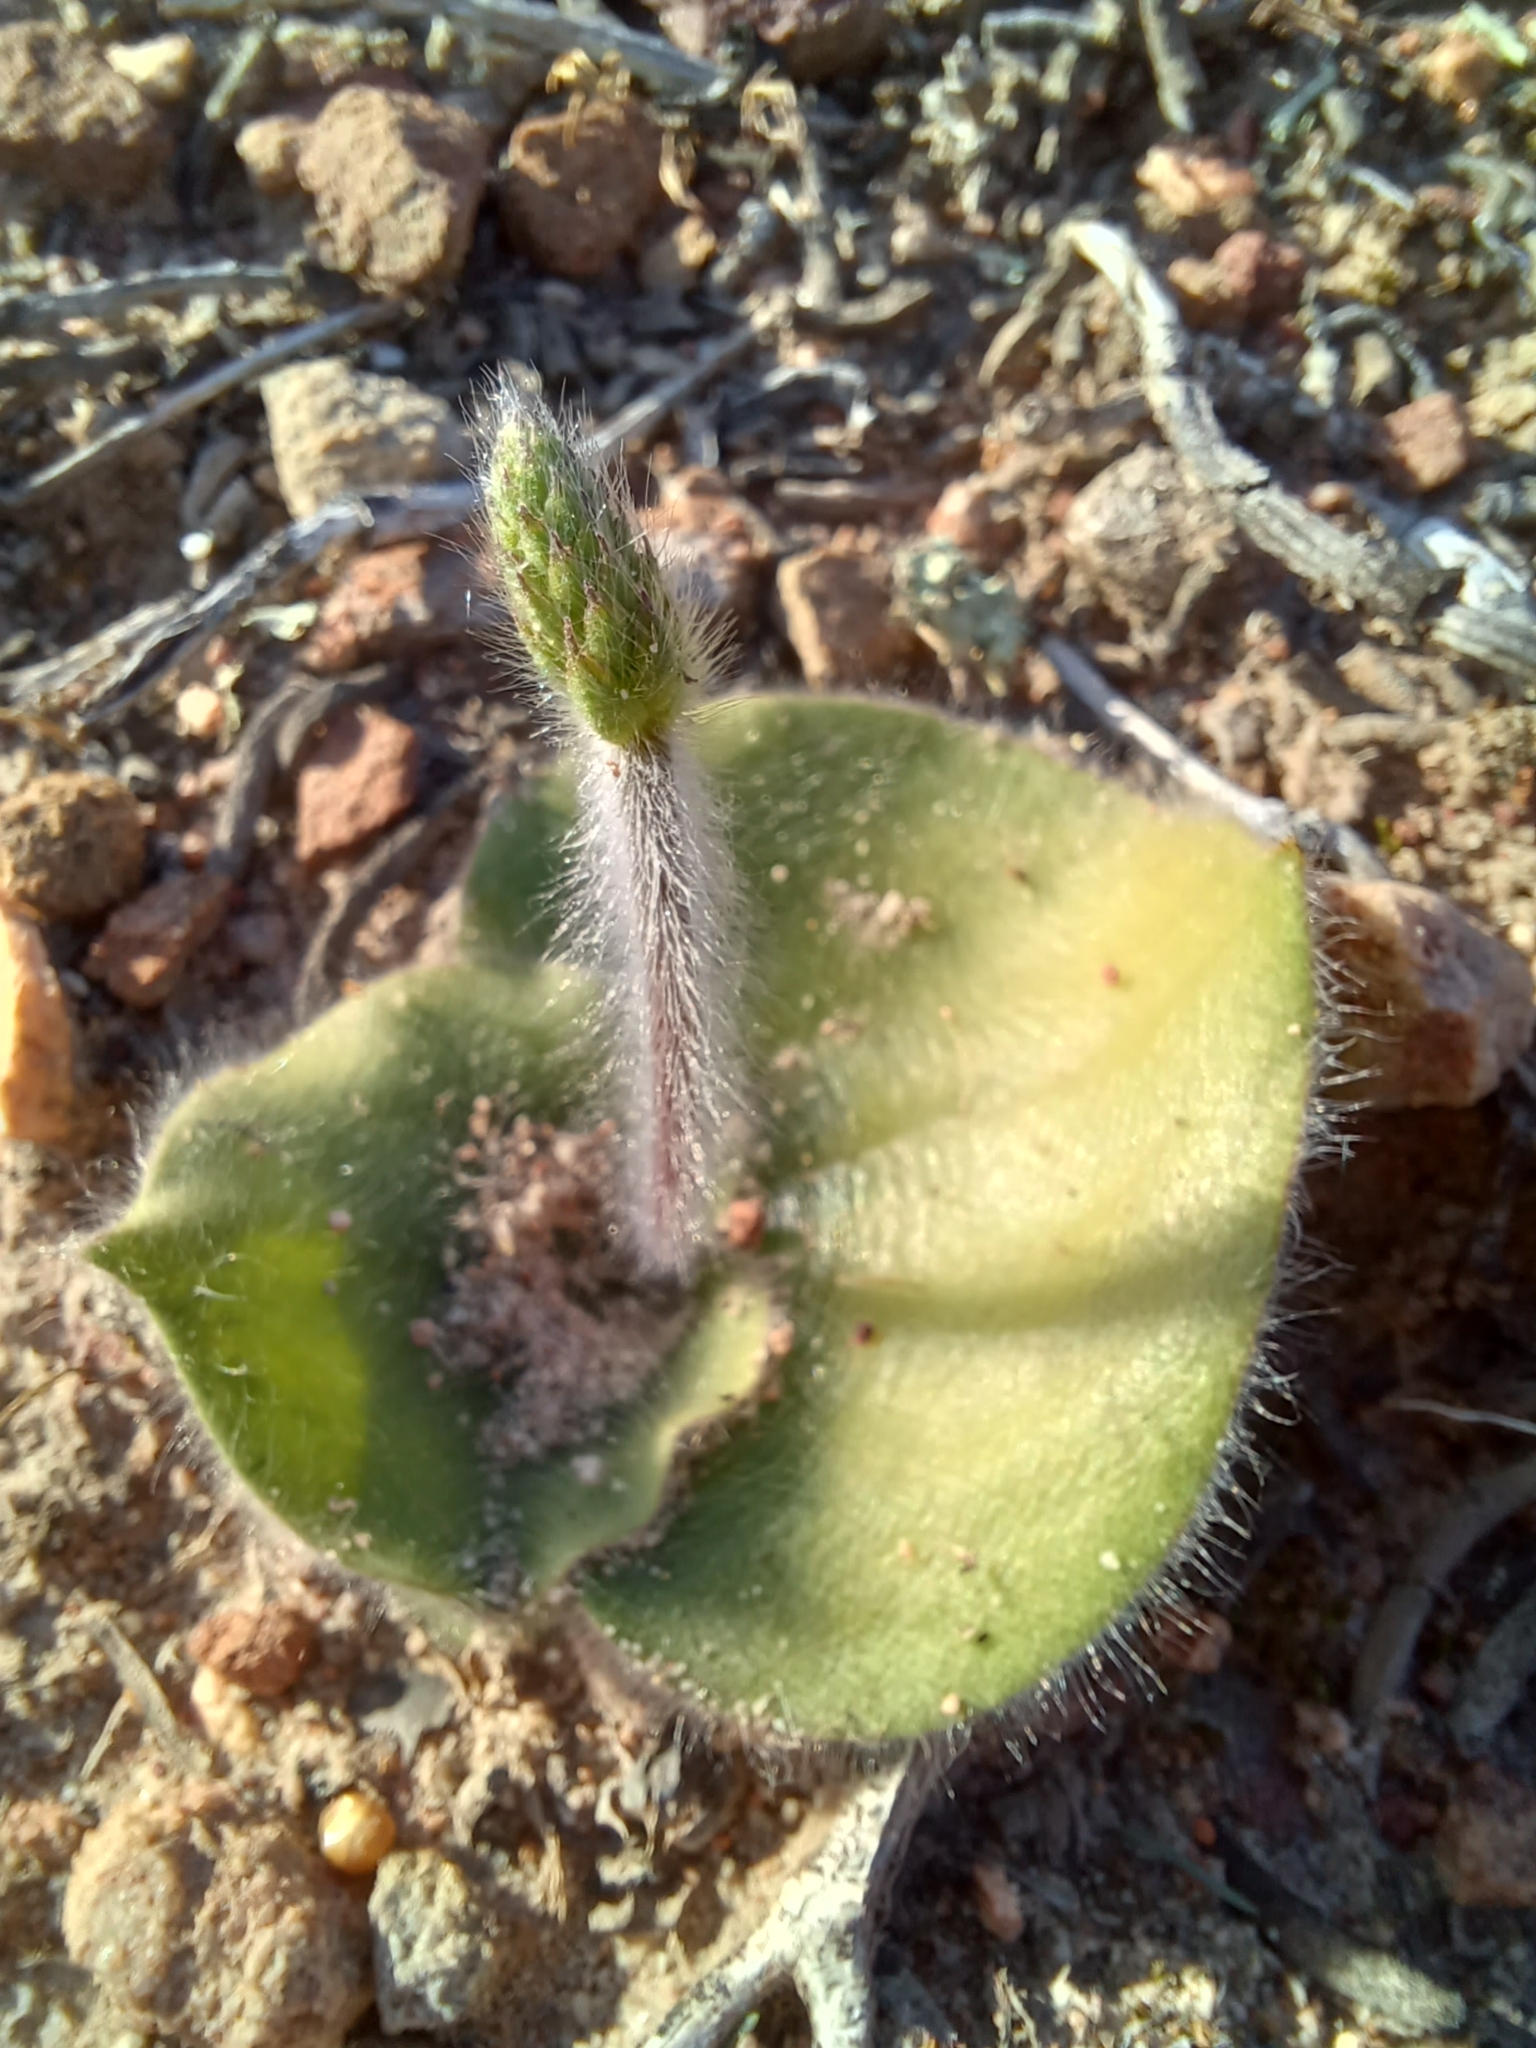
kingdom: Plantae
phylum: Tracheophyta
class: Liliopsida
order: Asparagales
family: Orchidaceae
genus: Holothrix
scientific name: Holothrix villosa
